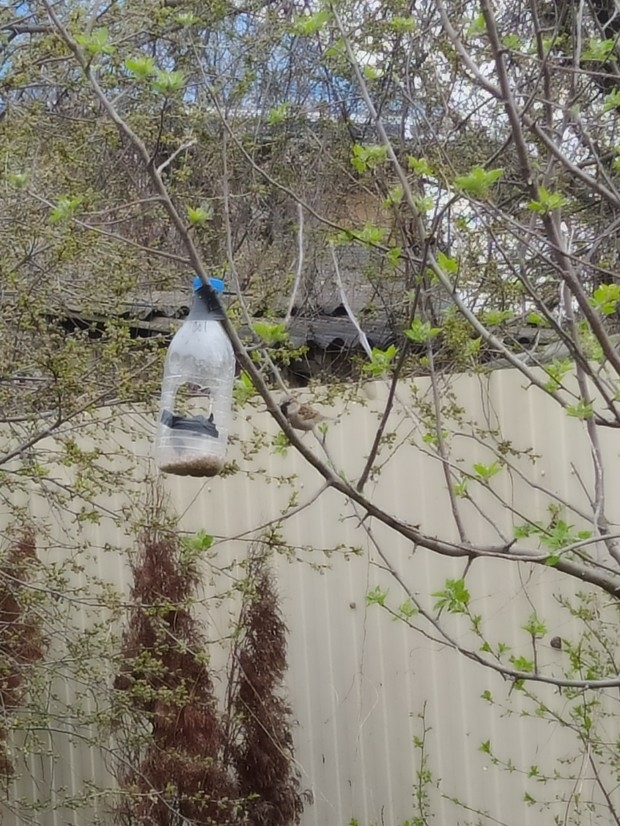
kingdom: Animalia
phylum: Chordata
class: Aves
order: Passeriformes
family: Passeridae
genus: Passer
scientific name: Passer domesticus
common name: House sparrow
